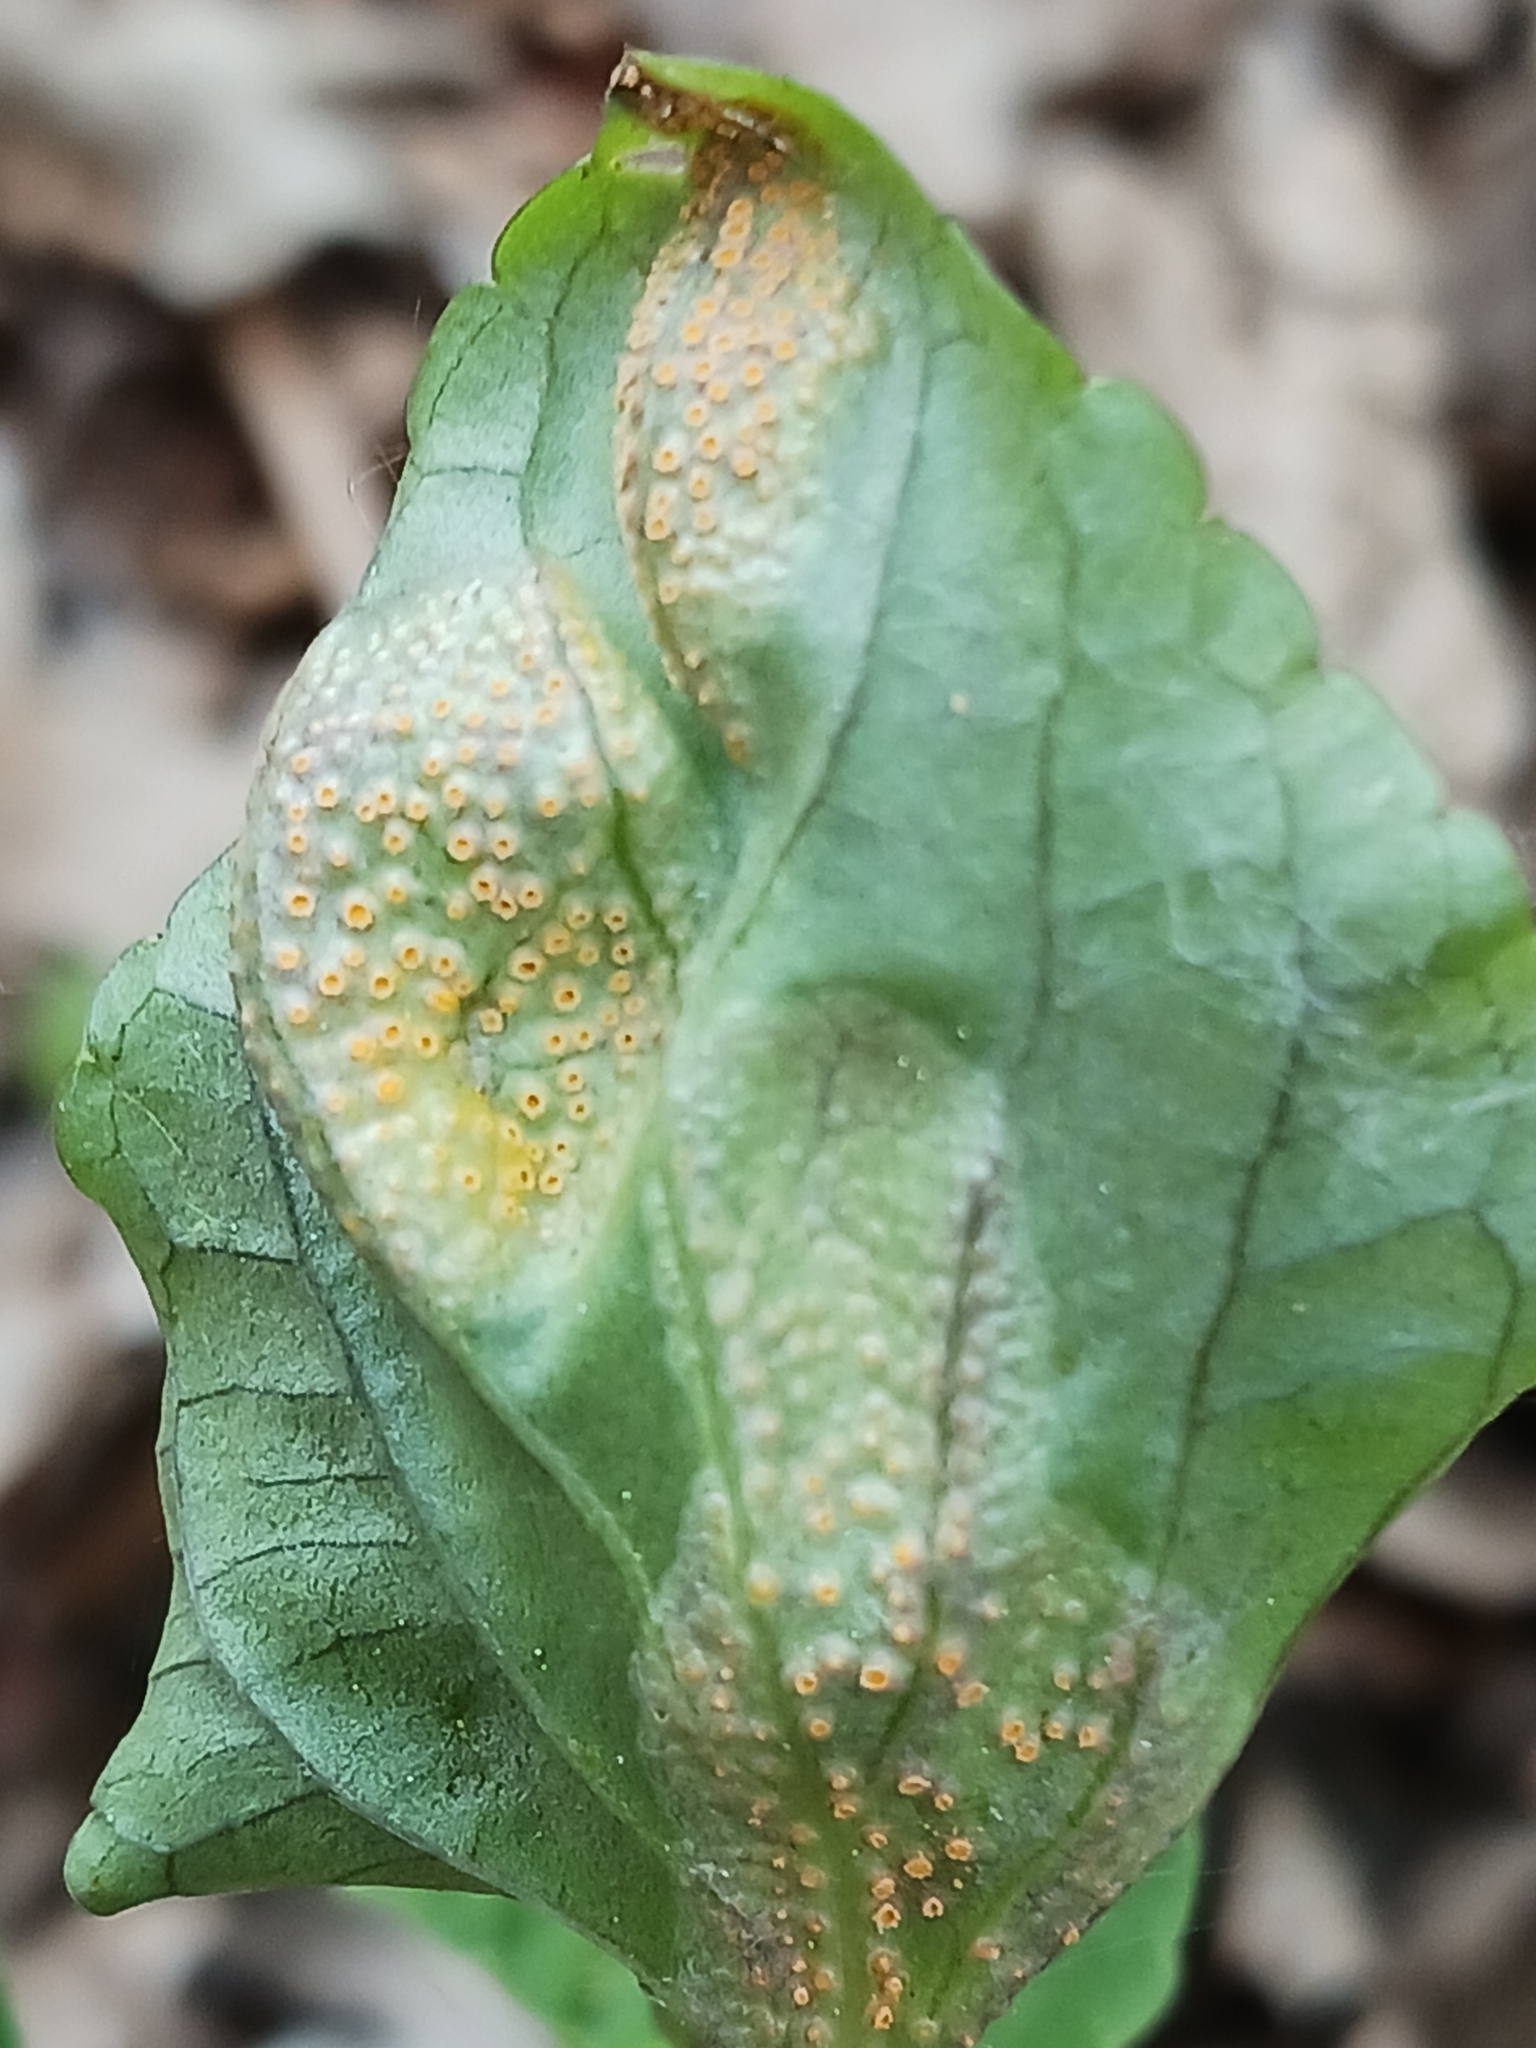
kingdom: Fungi
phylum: Basidiomycota
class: Pucciniomycetes
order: Pucciniales
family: Pucciniaceae
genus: Puccinia
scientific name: Puccinia violae
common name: Violet rust
